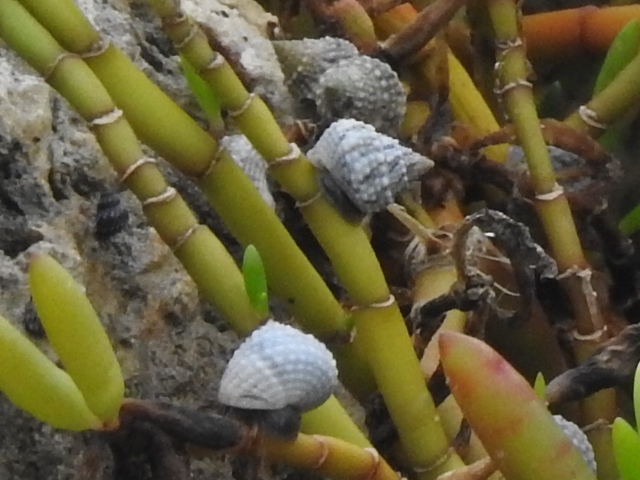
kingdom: Animalia
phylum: Mollusca
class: Gastropoda
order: Littorinimorpha
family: Littorinidae
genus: Cenchritis
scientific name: Cenchritis muricatus
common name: Beaded periwinkle
